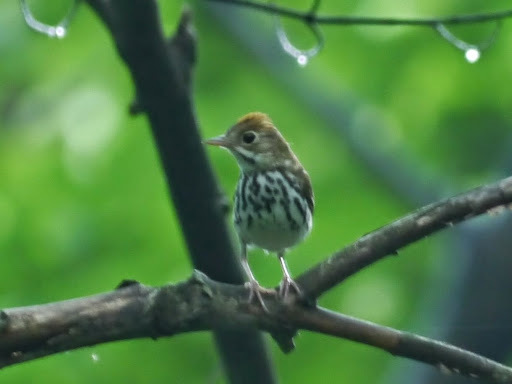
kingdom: Animalia
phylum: Chordata
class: Aves
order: Passeriformes
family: Parulidae
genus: Seiurus
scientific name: Seiurus aurocapilla
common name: Ovenbird
